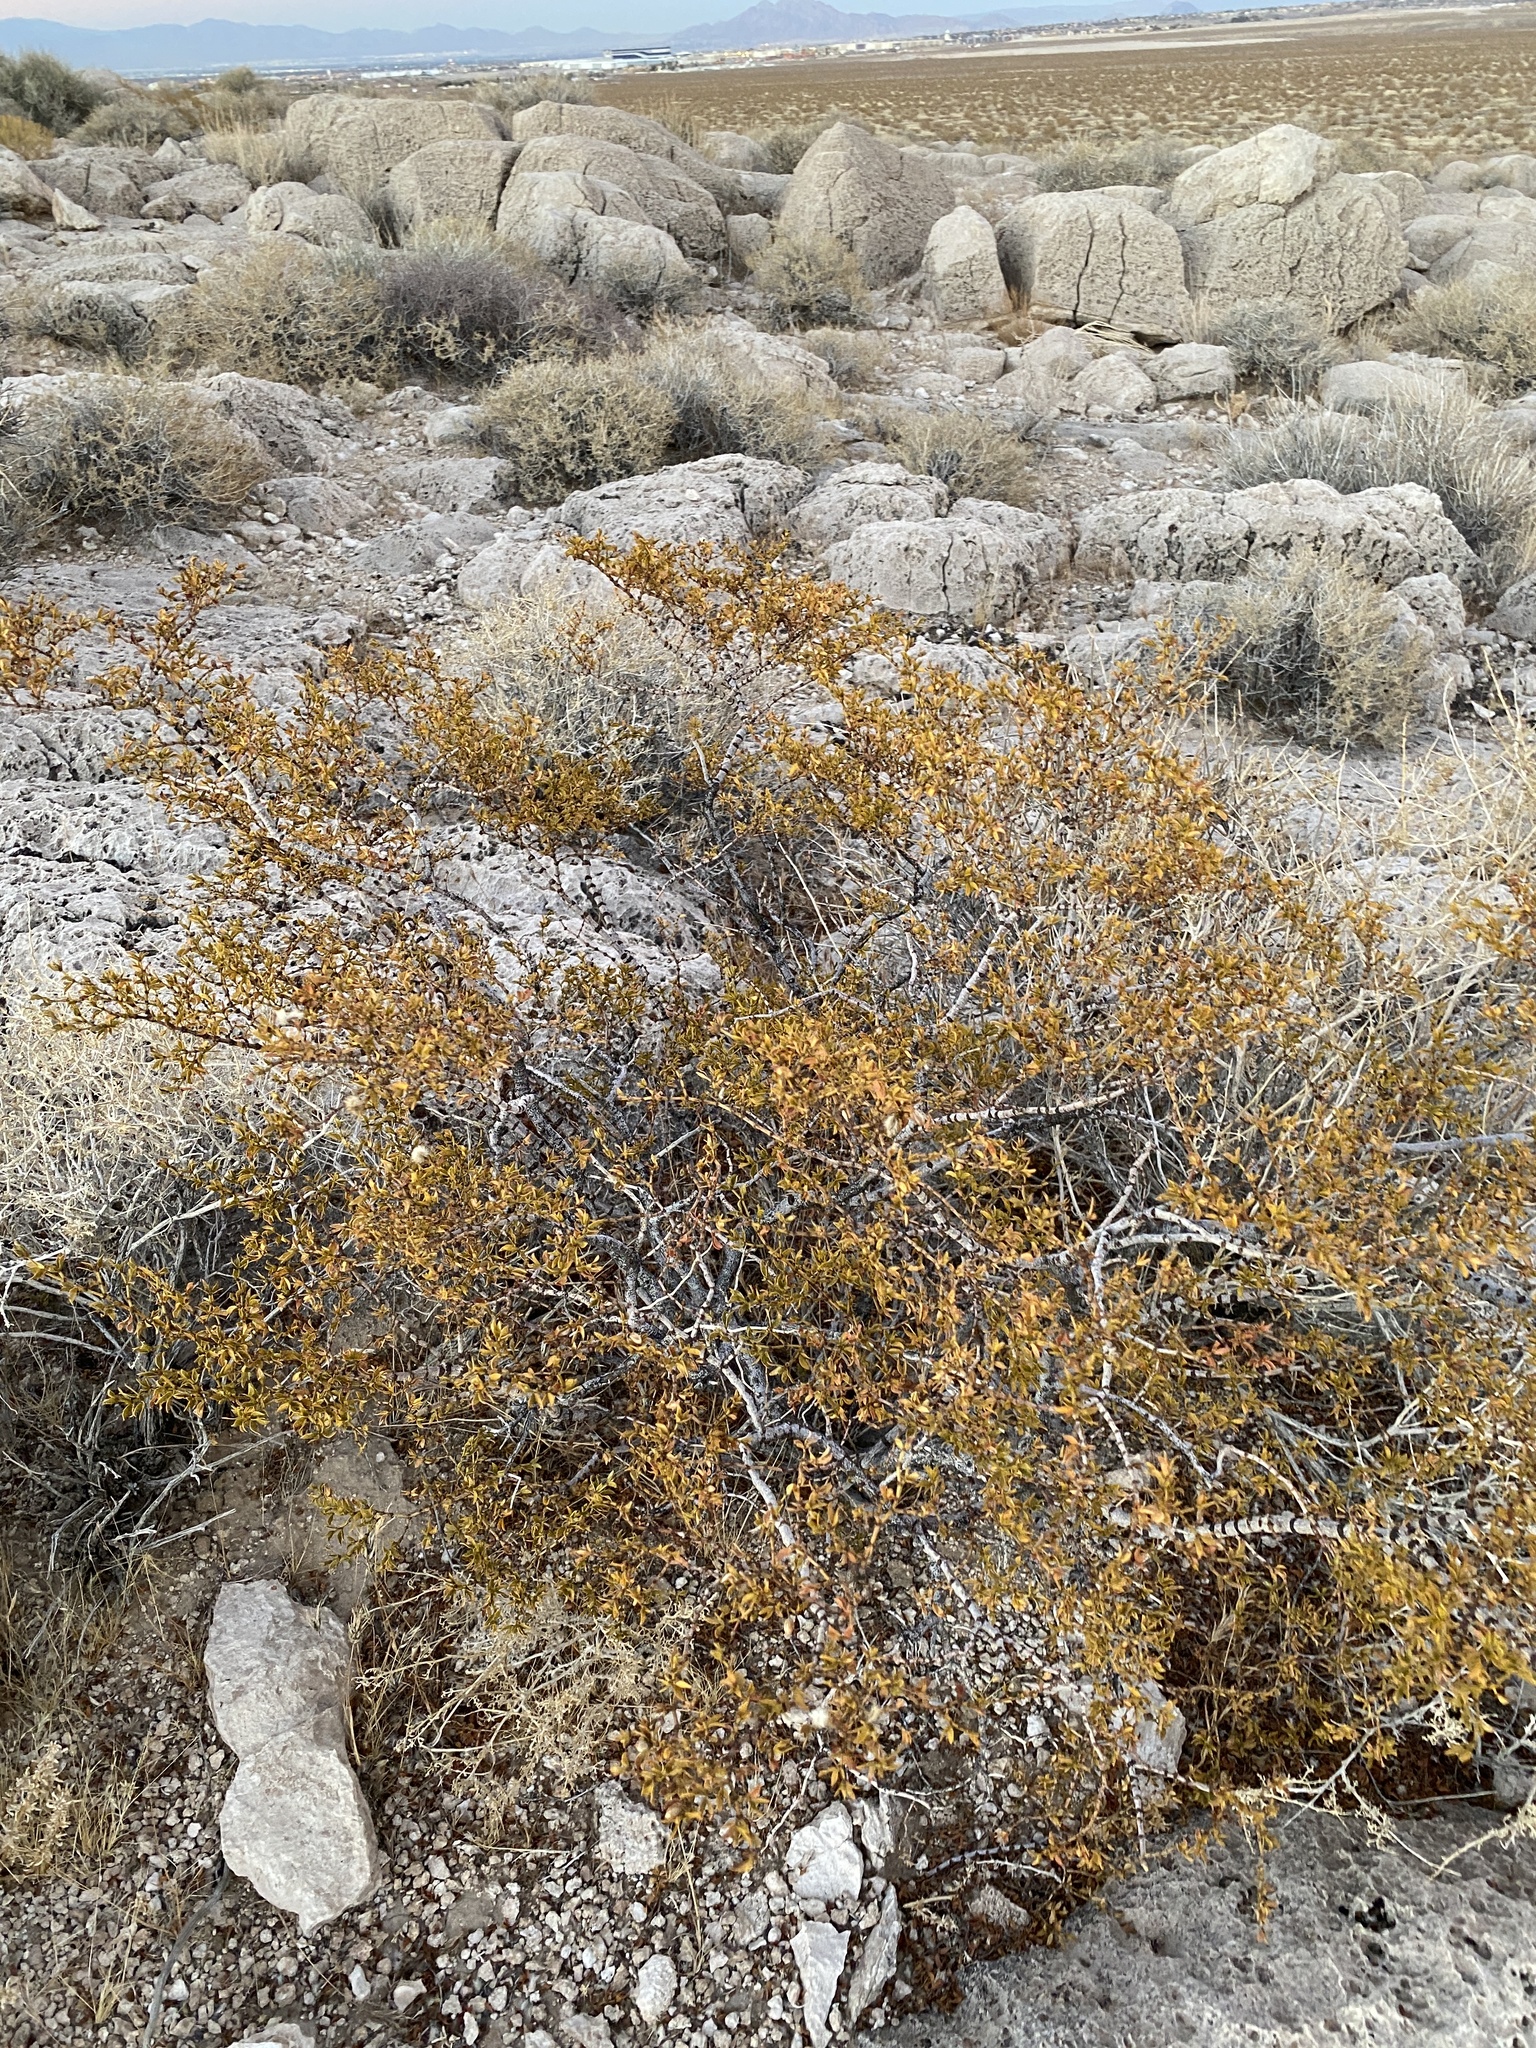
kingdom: Plantae
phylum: Tracheophyta
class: Magnoliopsida
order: Zygophyllales
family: Zygophyllaceae
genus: Larrea
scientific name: Larrea tridentata
